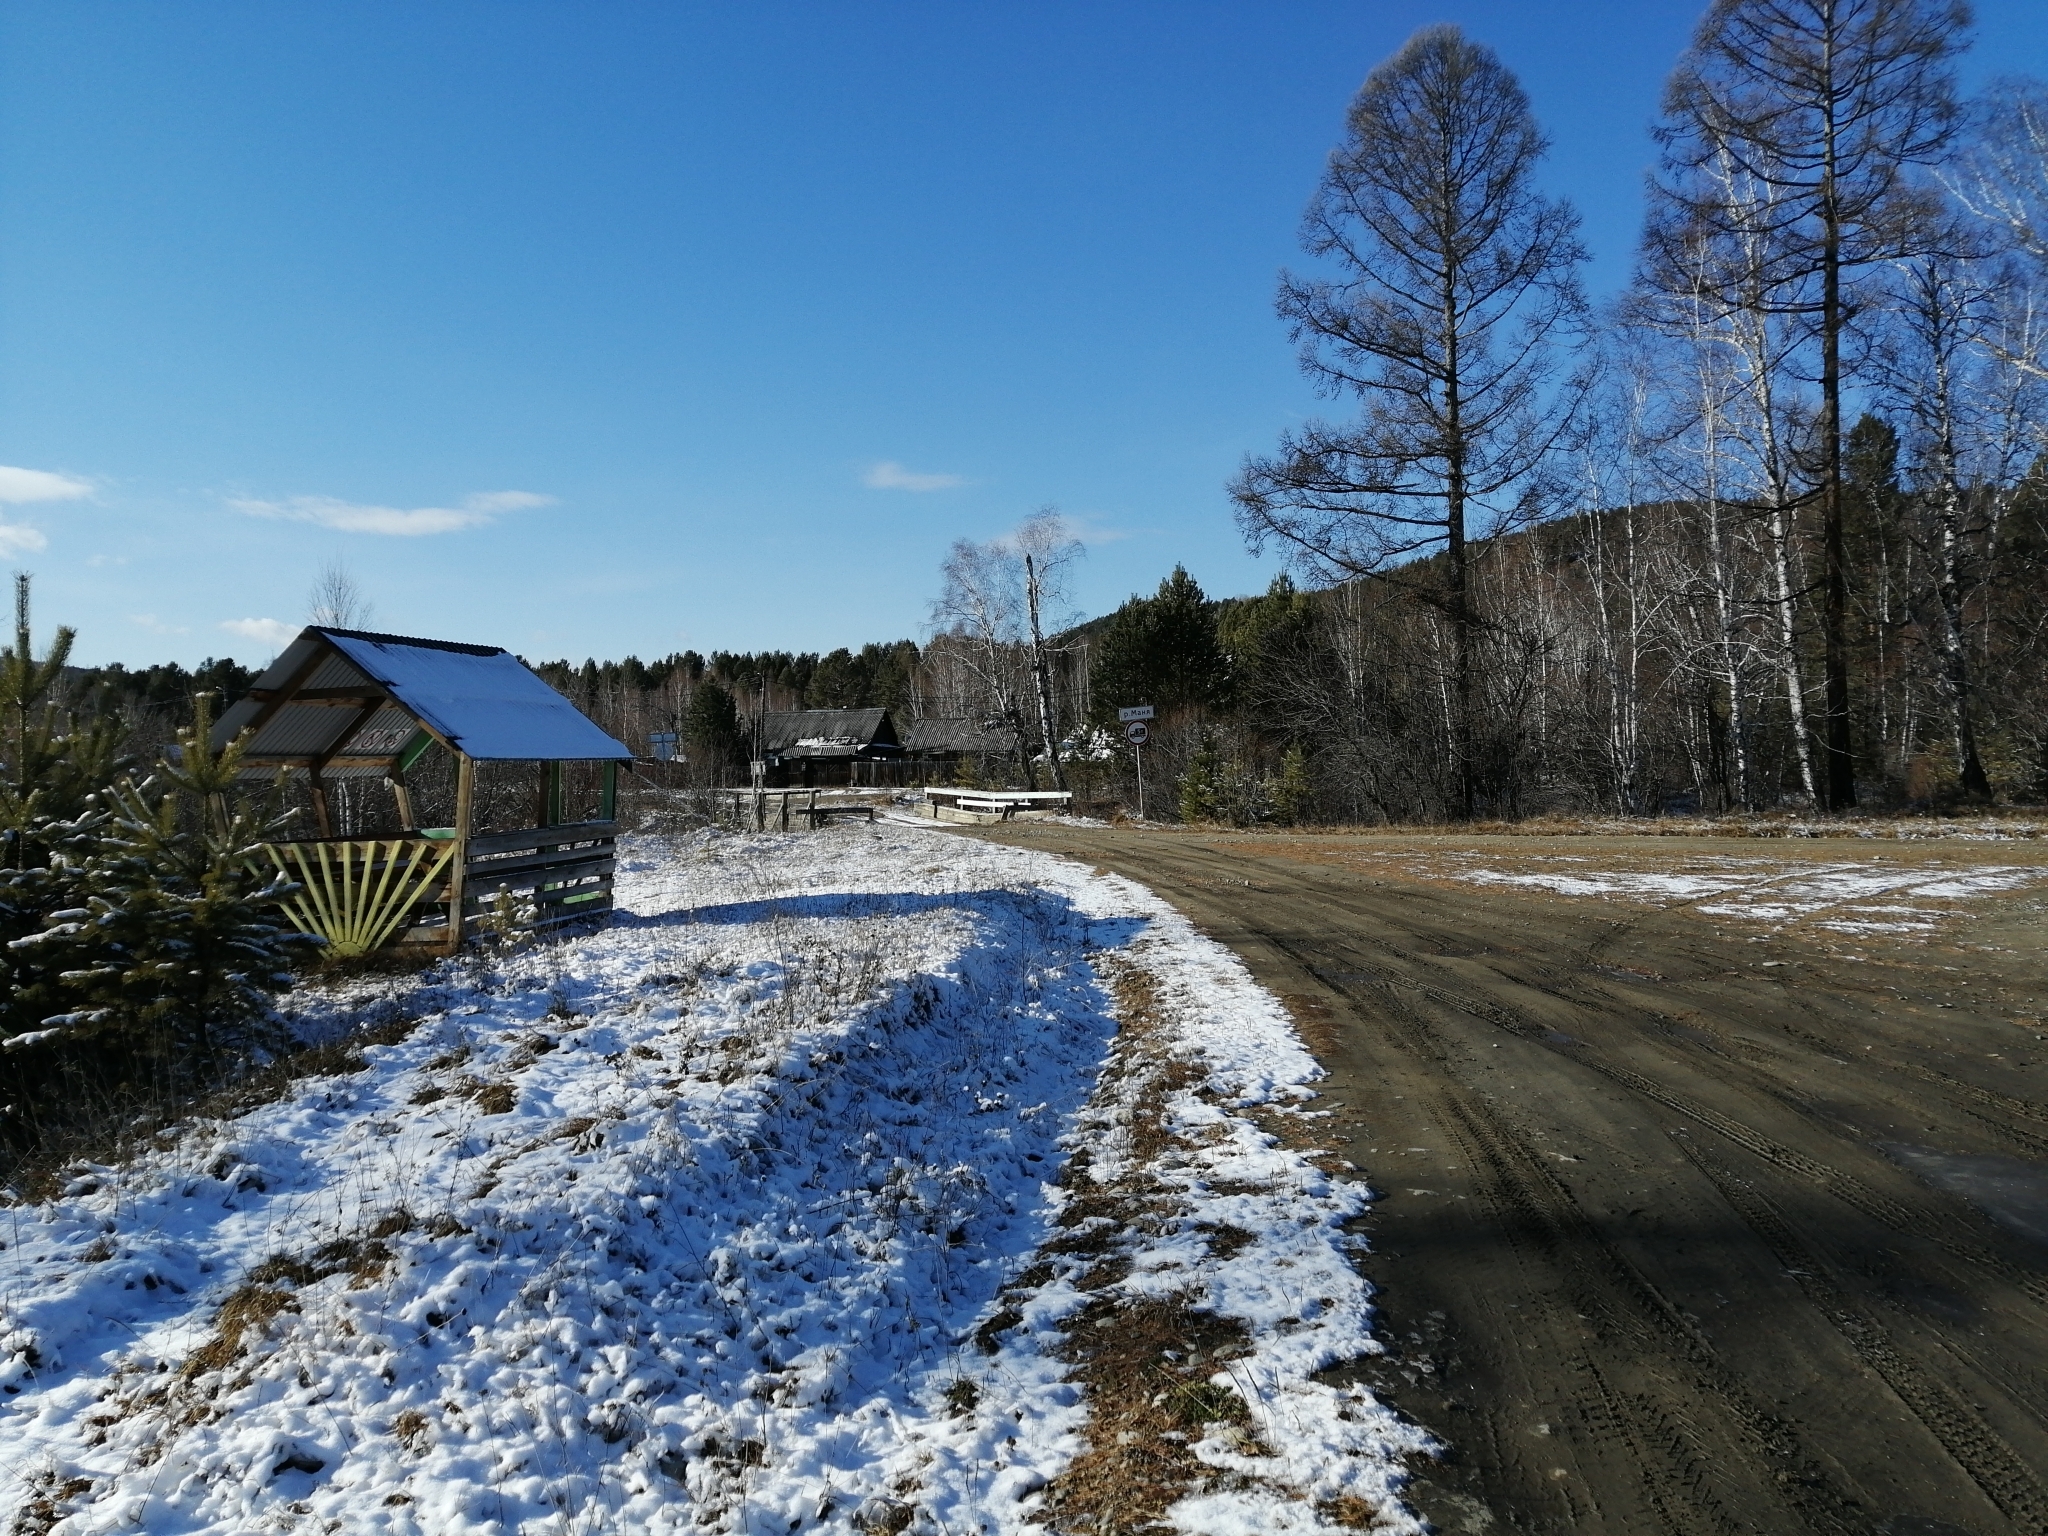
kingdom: Plantae
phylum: Tracheophyta
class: Pinopsida
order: Pinales
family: Pinaceae
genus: Larix
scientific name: Larix sibirica
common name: Siberian larch
